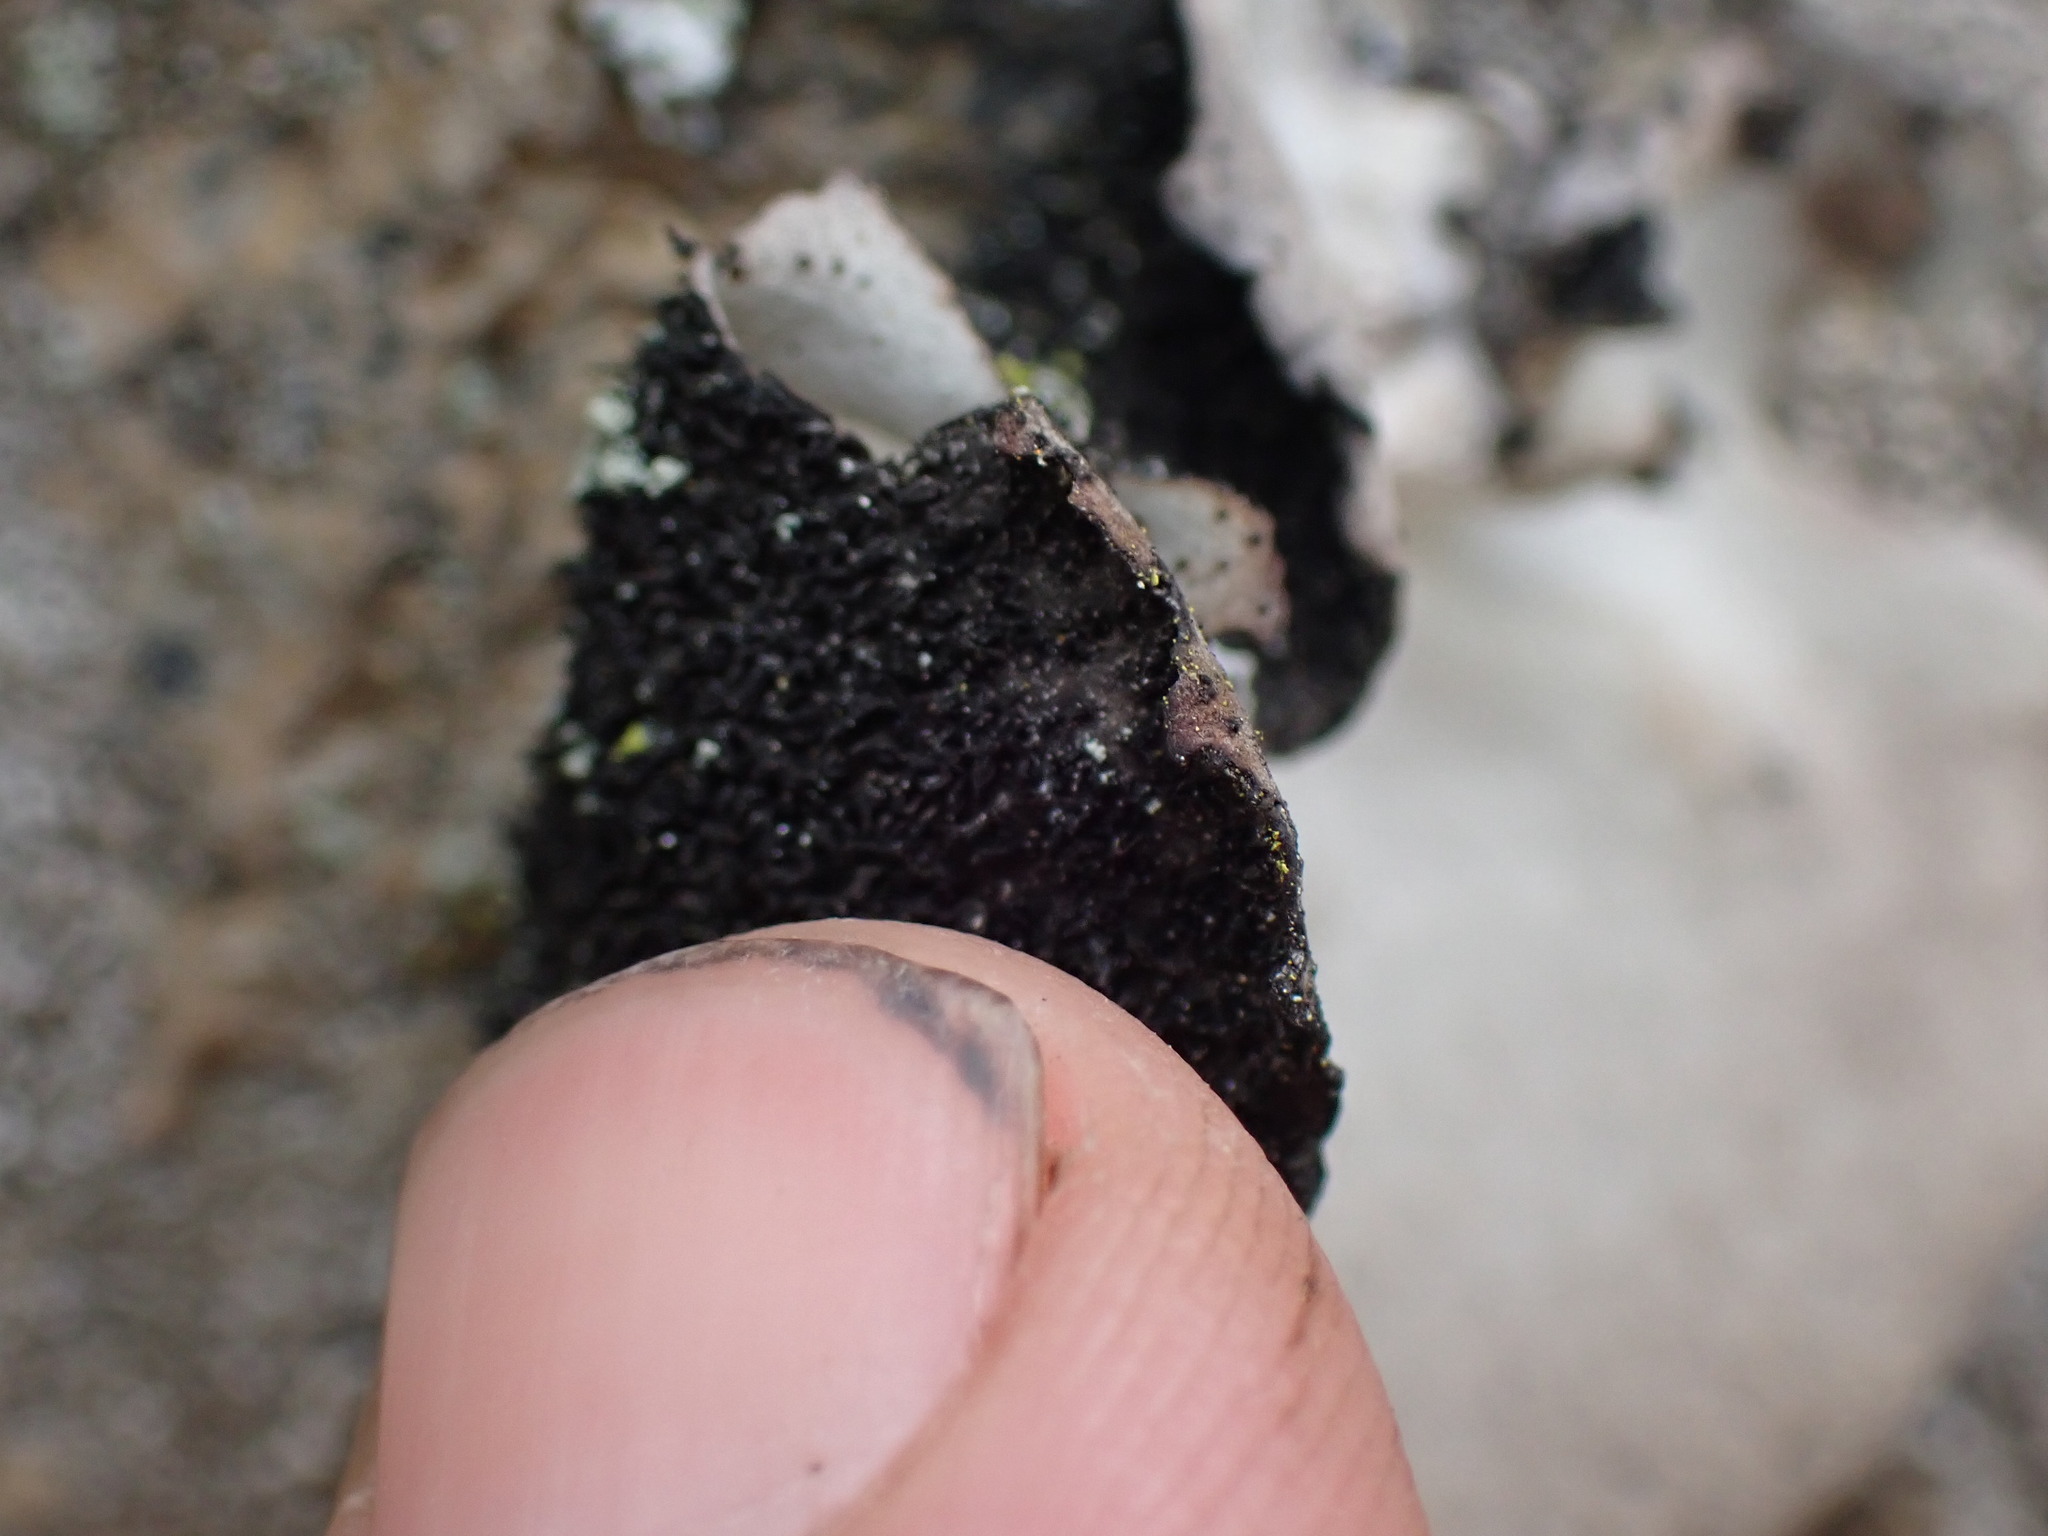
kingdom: Fungi
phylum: Ascomycota
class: Lecanoromycetes
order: Umbilicariales
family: Umbilicariaceae
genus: Umbilicaria
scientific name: Umbilicaria americana
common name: Frosted rock tripe
